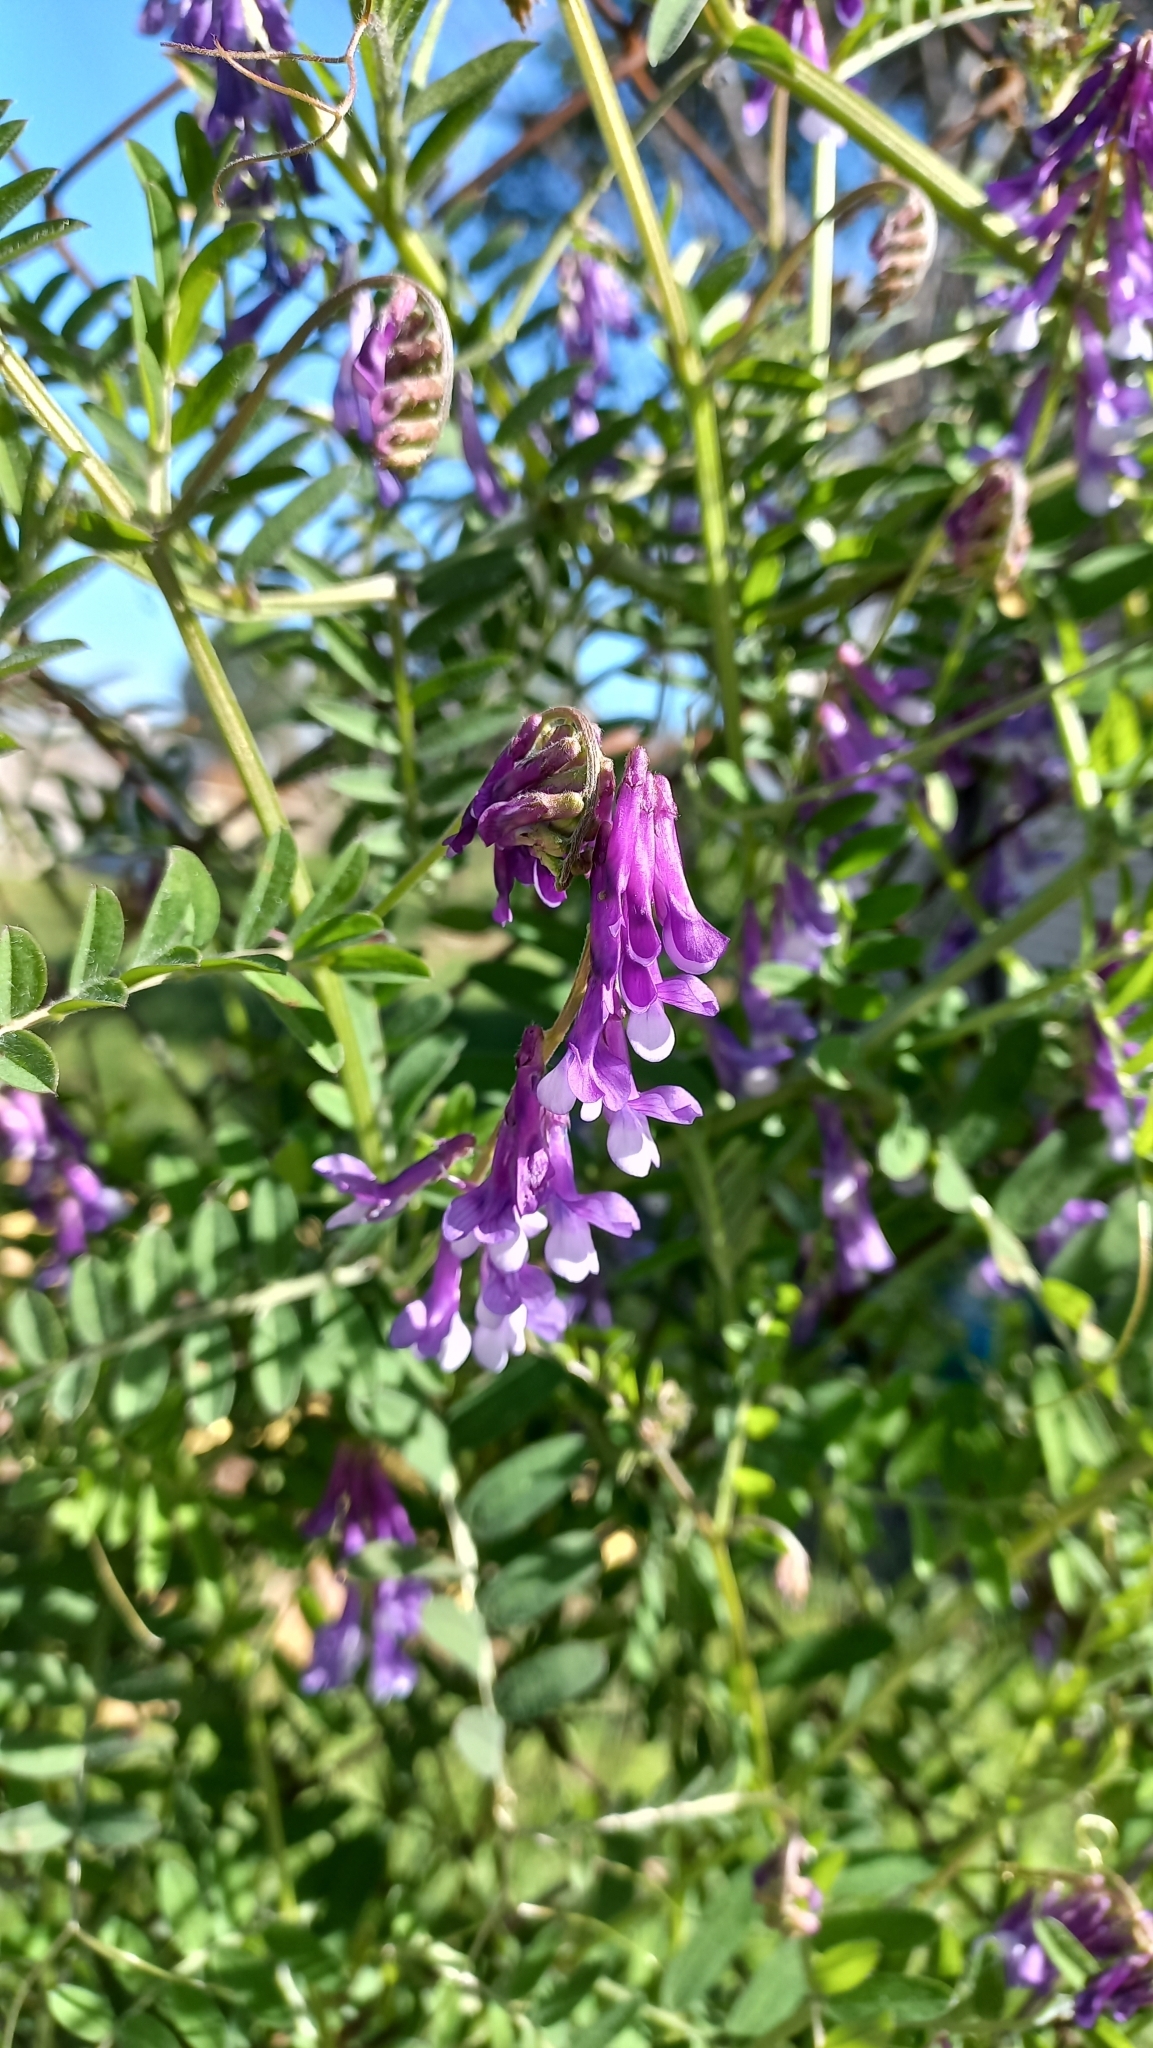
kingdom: Plantae
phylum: Tracheophyta
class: Magnoliopsida
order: Fabales
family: Fabaceae
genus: Vicia
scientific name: Vicia villosa
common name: Fodder vetch
